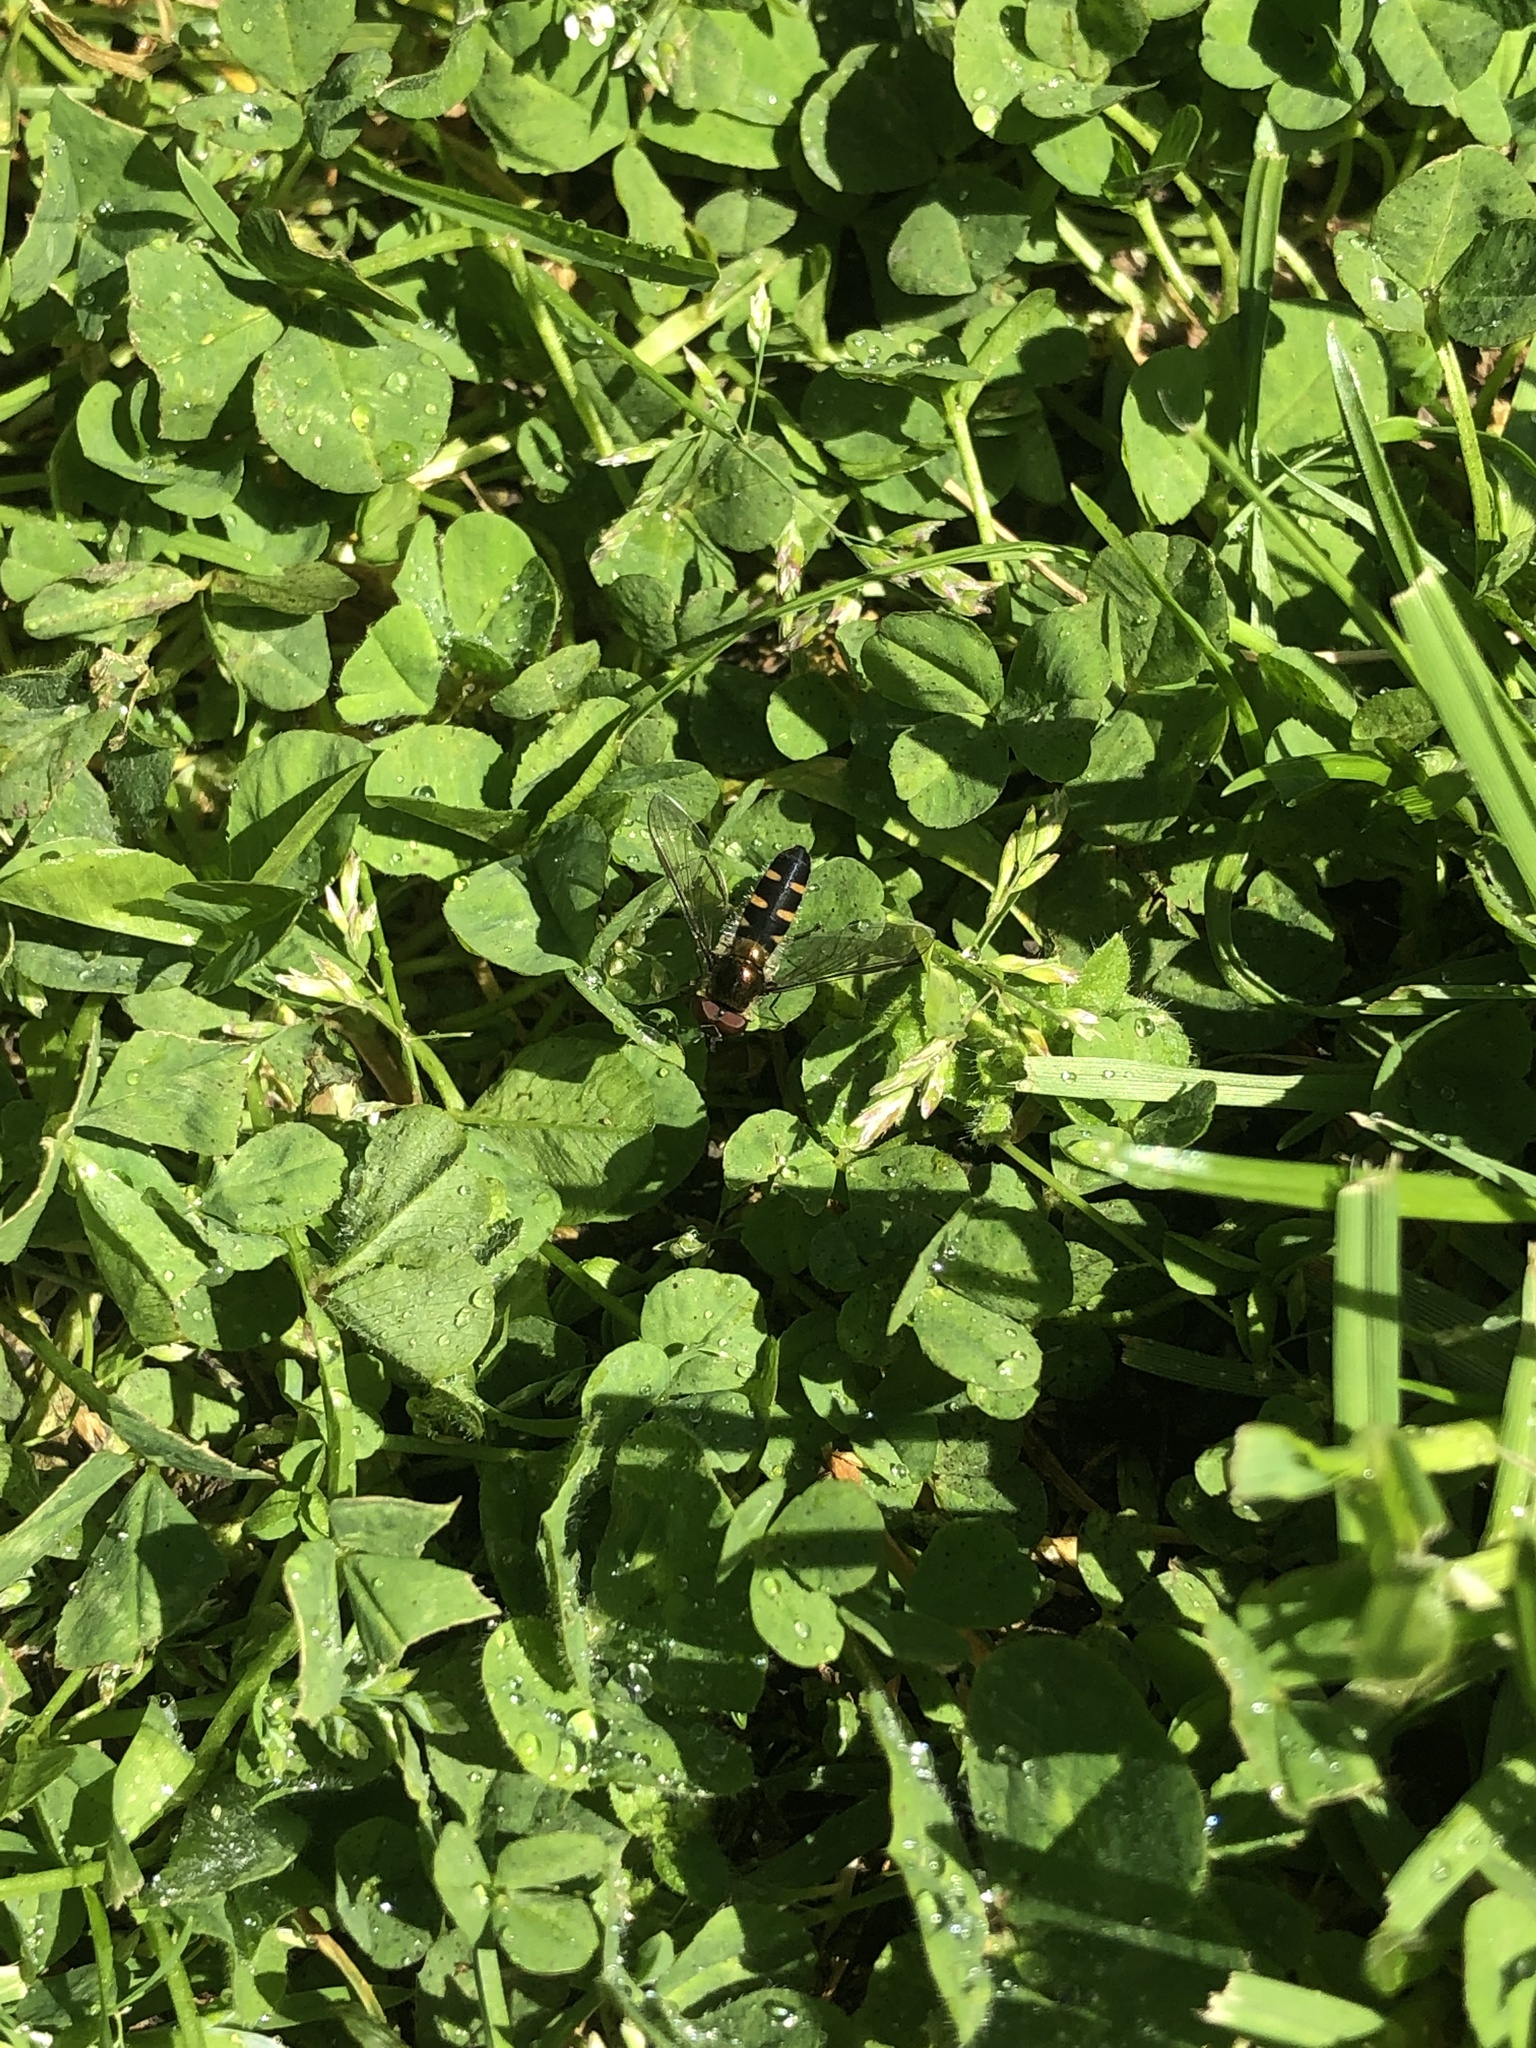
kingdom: Animalia
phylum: Arthropoda
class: Insecta
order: Diptera
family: Syrphidae
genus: Melangyna
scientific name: Melangyna novaezelandiae
